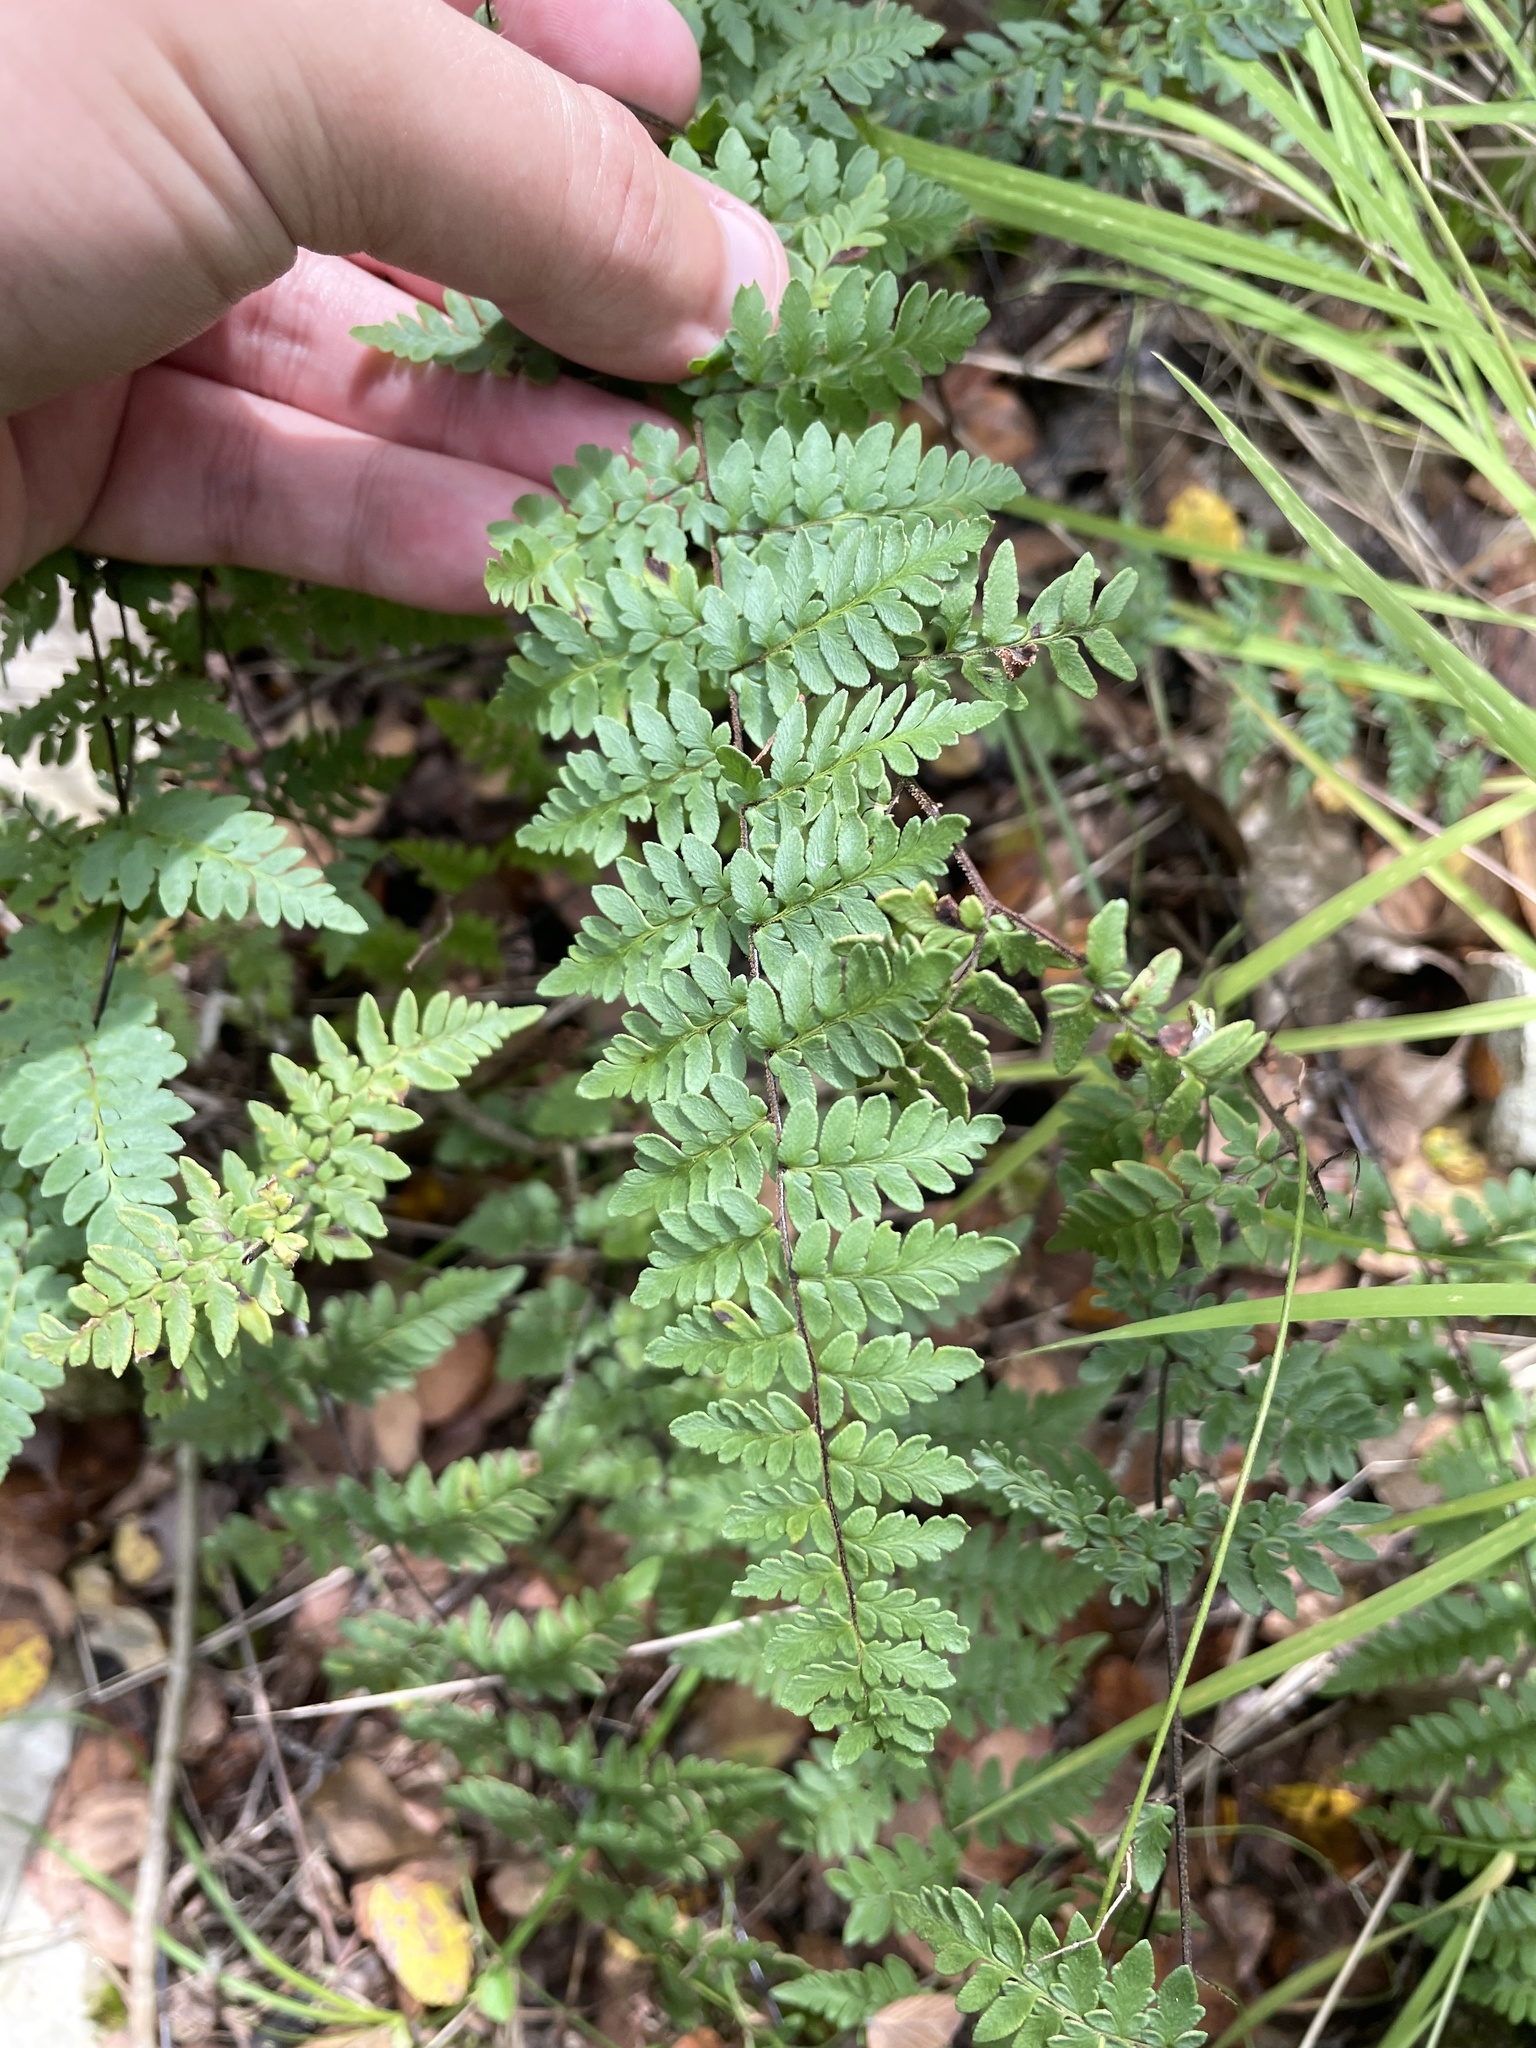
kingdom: Plantae
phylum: Tracheophyta
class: Polypodiopsida
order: Polypodiales
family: Pteridaceae
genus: Myriopteris
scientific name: Myriopteris alabamensis
